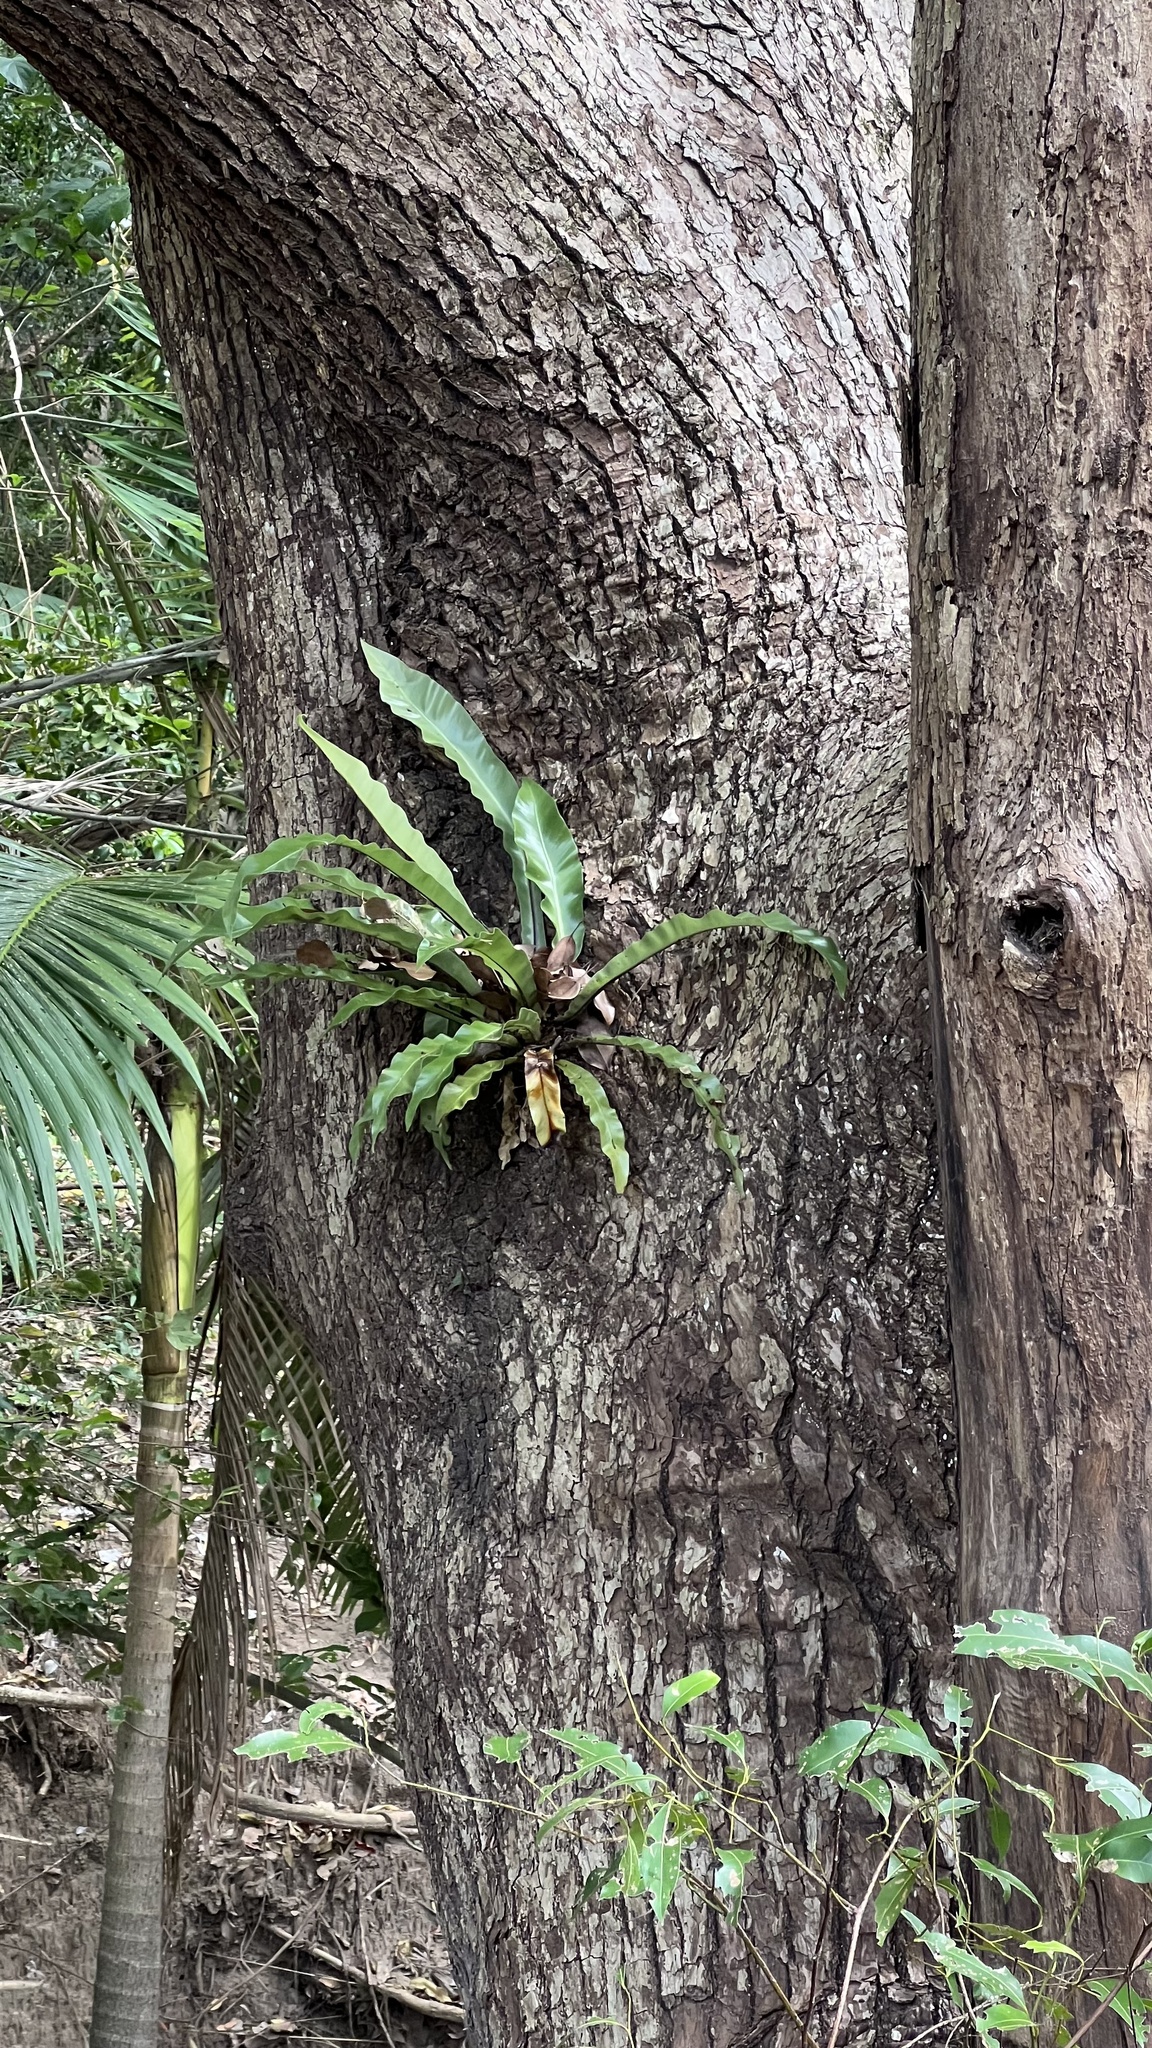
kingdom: Plantae
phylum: Tracheophyta
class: Polypodiopsida
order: Polypodiales
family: Aspleniaceae
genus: Asplenium
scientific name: Asplenium australasicum
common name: Bird's-nest fern
